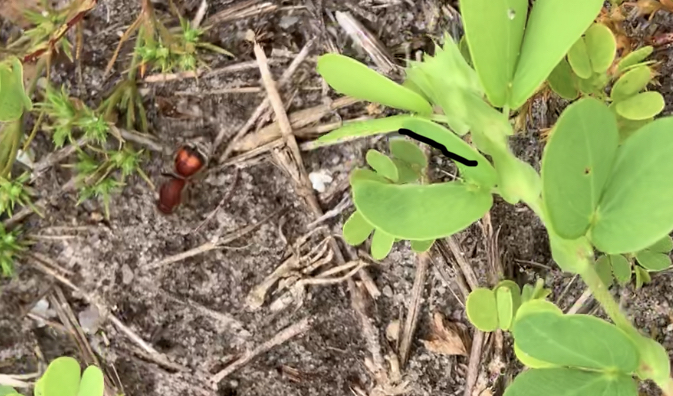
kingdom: Animalia
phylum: Arthropoda
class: Insecta
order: Hymenoptera
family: Mutillidae
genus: Dasymutilla
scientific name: Dasymutilla
